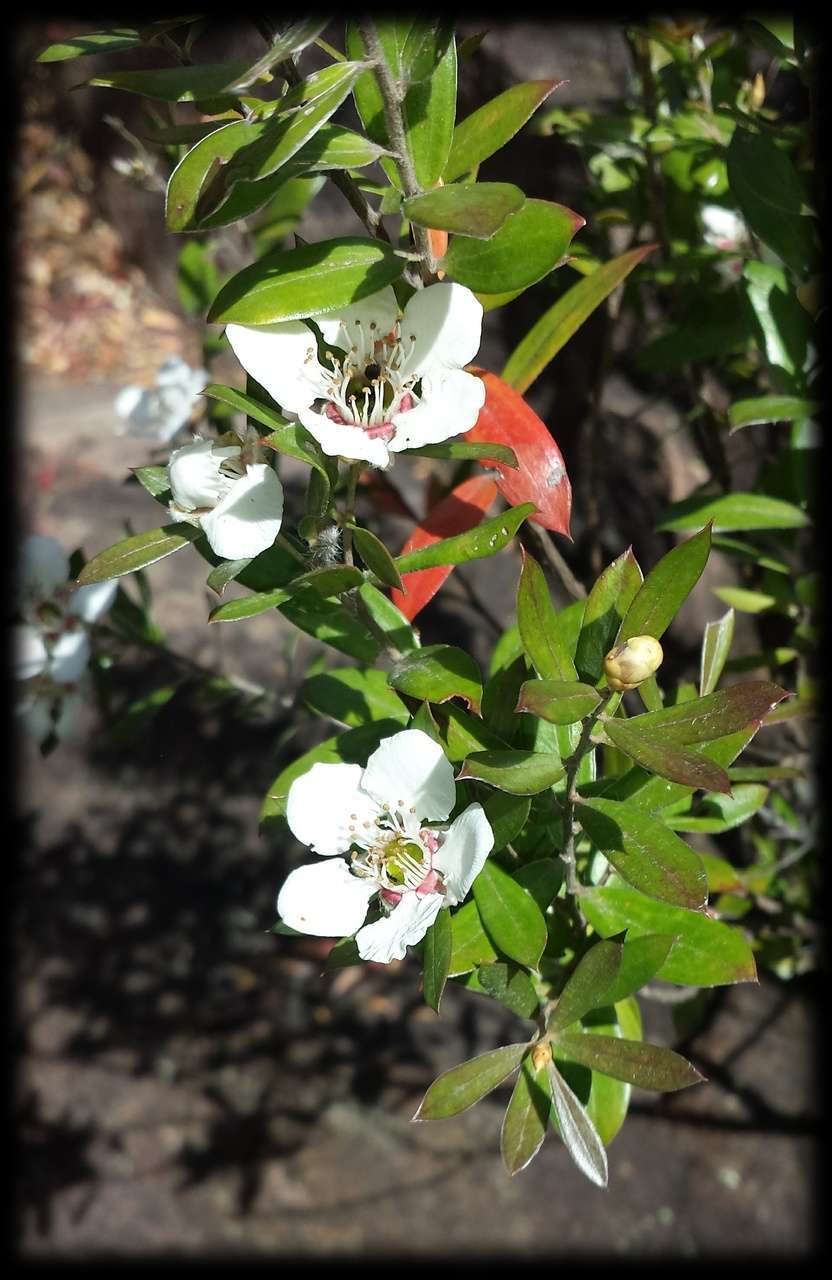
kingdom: Plantae
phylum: Tracheophyta
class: Magnoliopsida
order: Myrtales
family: Myrtaceae
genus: Leptospermum
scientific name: Leptospermum turbinatum
